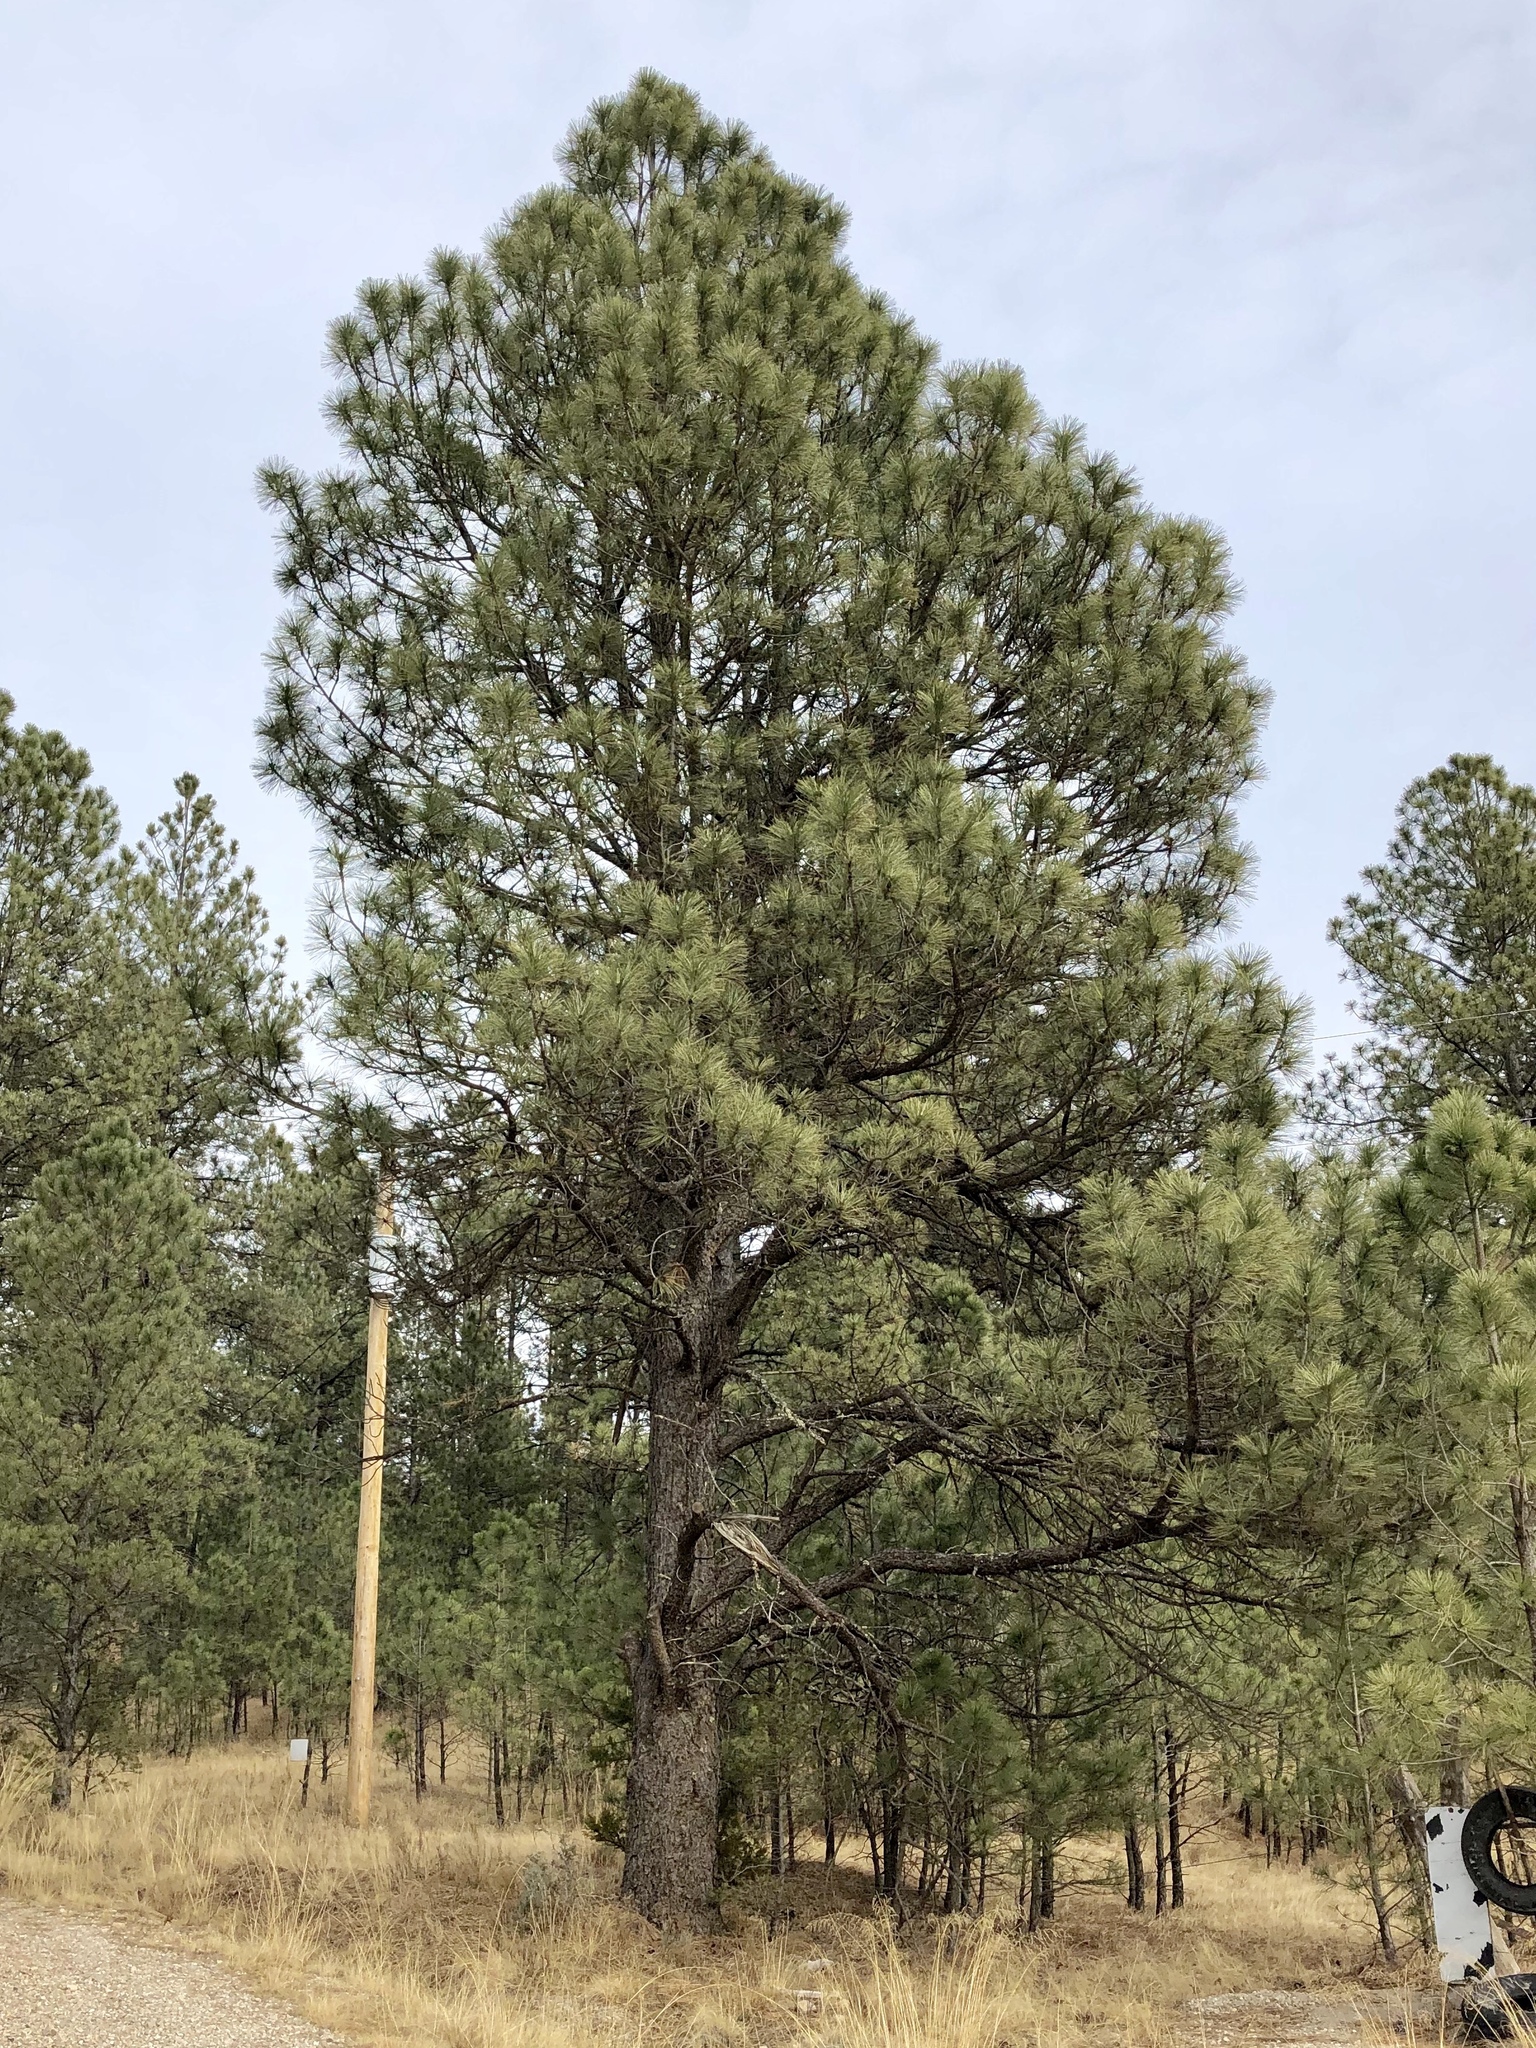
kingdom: Plantae
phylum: Tracheophyta
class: Pinopsida
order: Pinales
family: Pinaceae
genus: Pinus
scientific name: Pinus ponderosa
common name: Western yellow-pine
